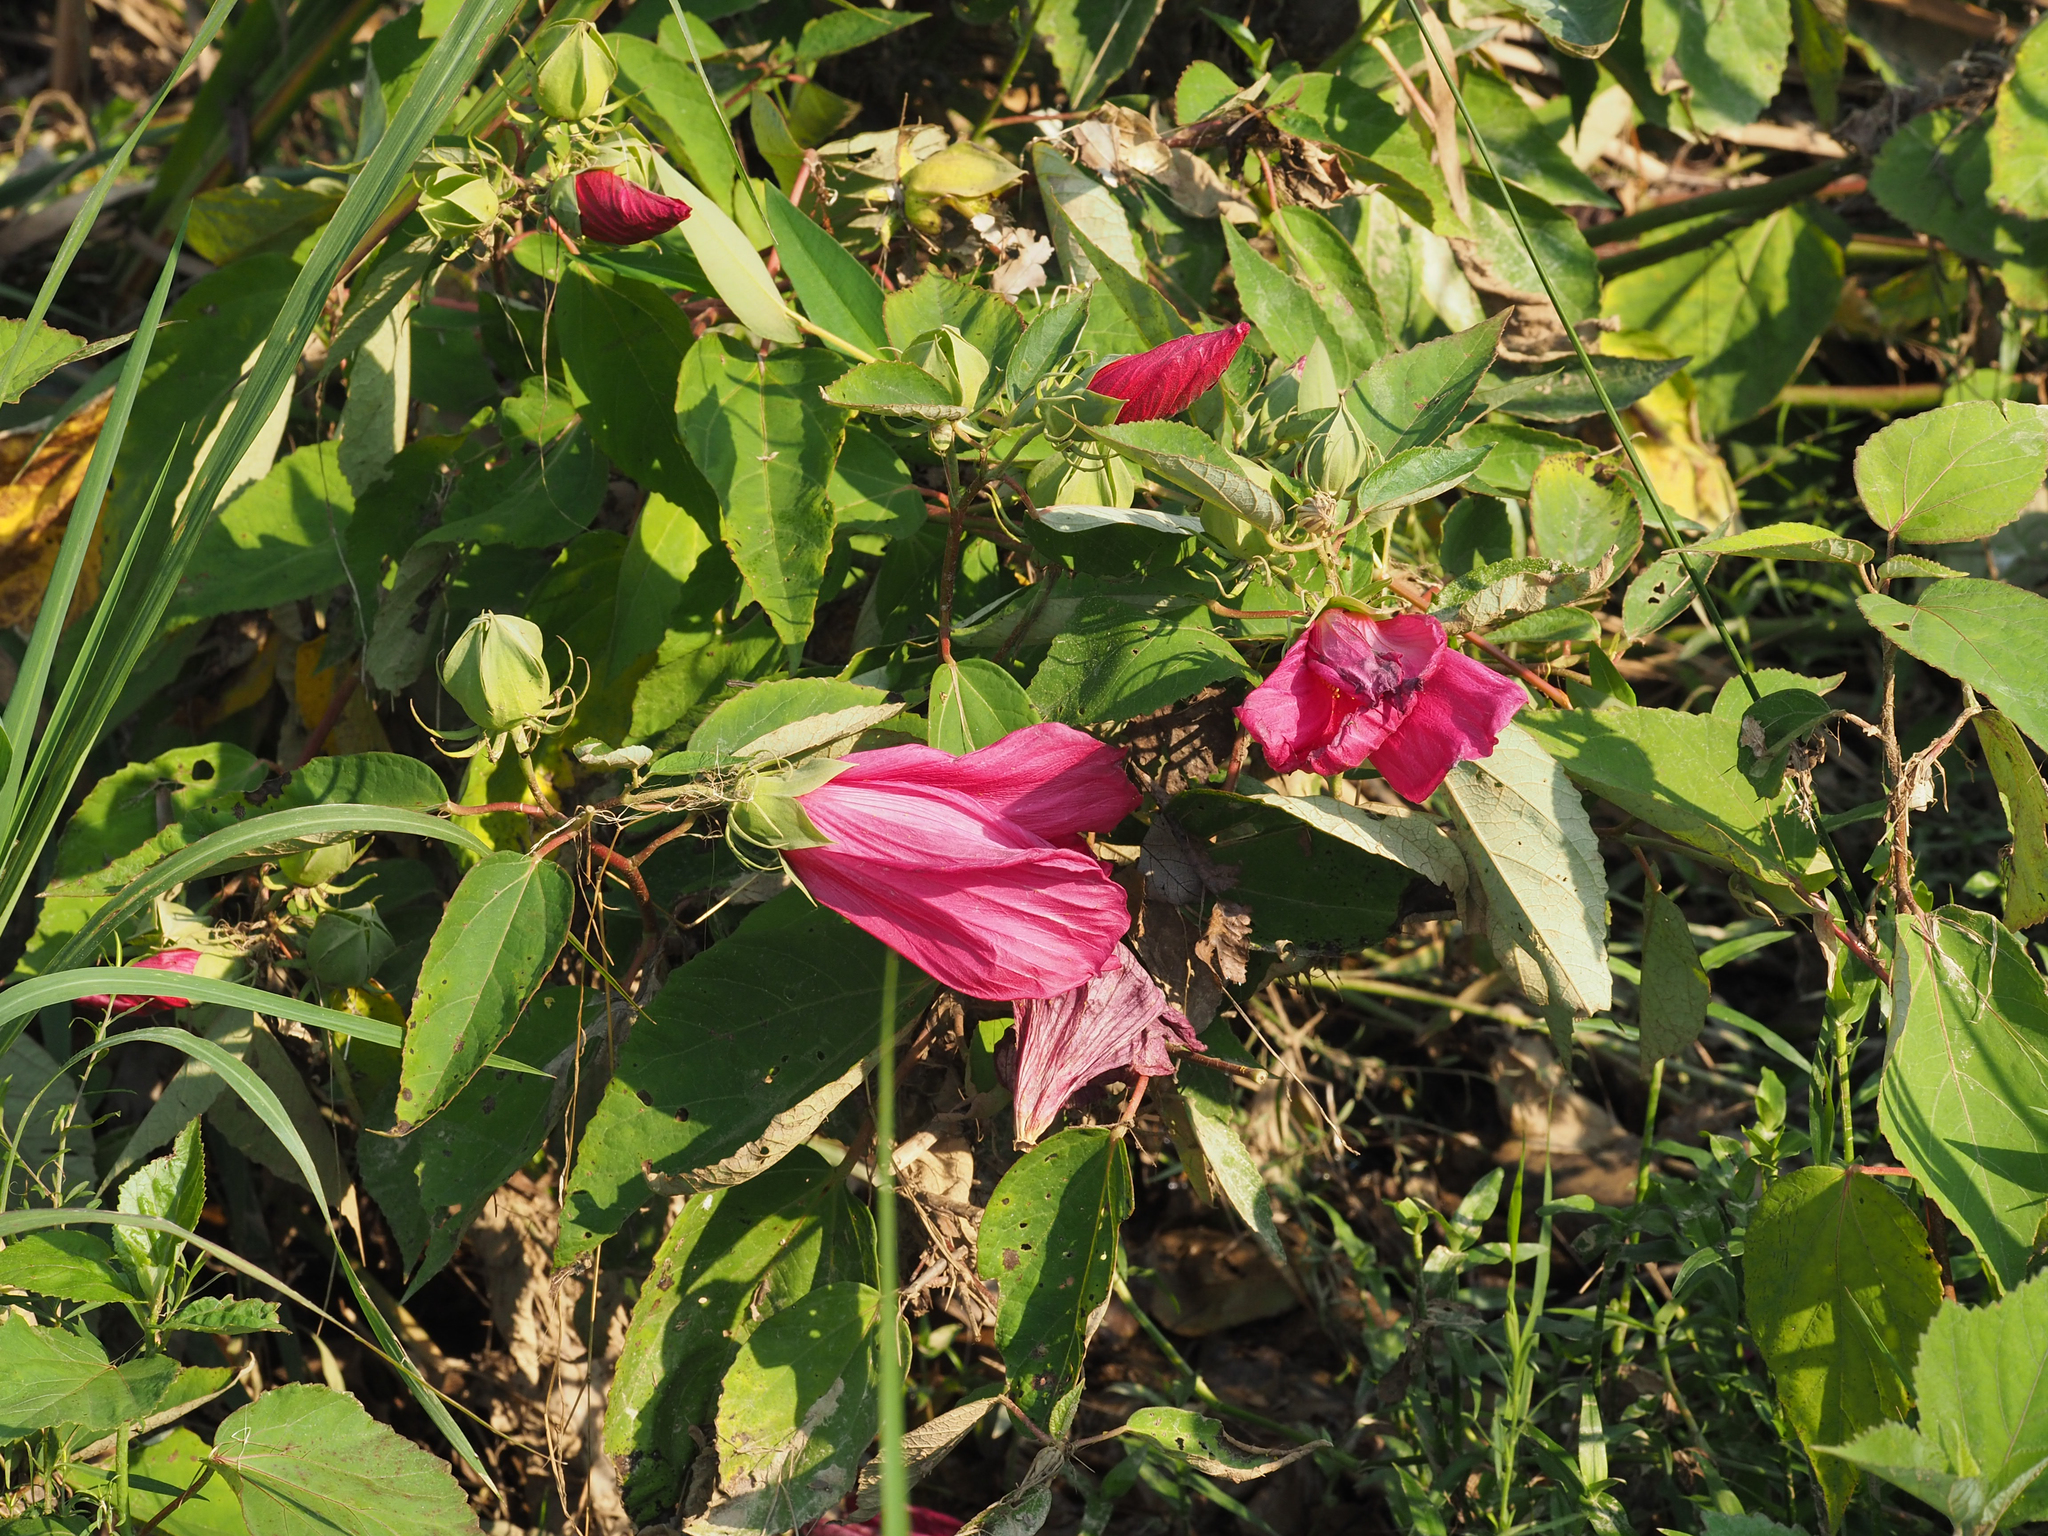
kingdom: Plantae
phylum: Tracheophyta
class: Magnoliopsida
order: Malvales
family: Malvaceae
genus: Hibiscus
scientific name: Hibiscus moscheutos
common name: Common rose-mallow
